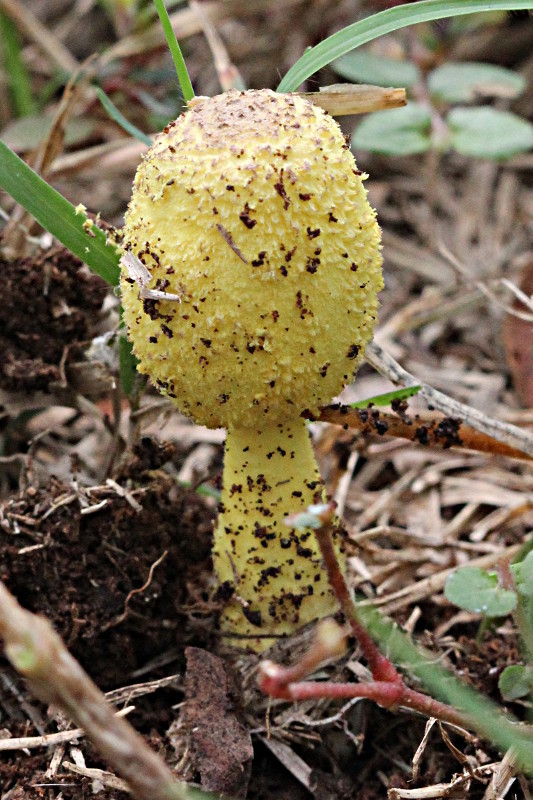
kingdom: Fungi
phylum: Basidiomycota
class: Agaricomycetes
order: Agaricales
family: Agaricaceae
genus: Leucocoprinus
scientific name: Leucocoprinus birnbaumii
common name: Plantpot dapperling
